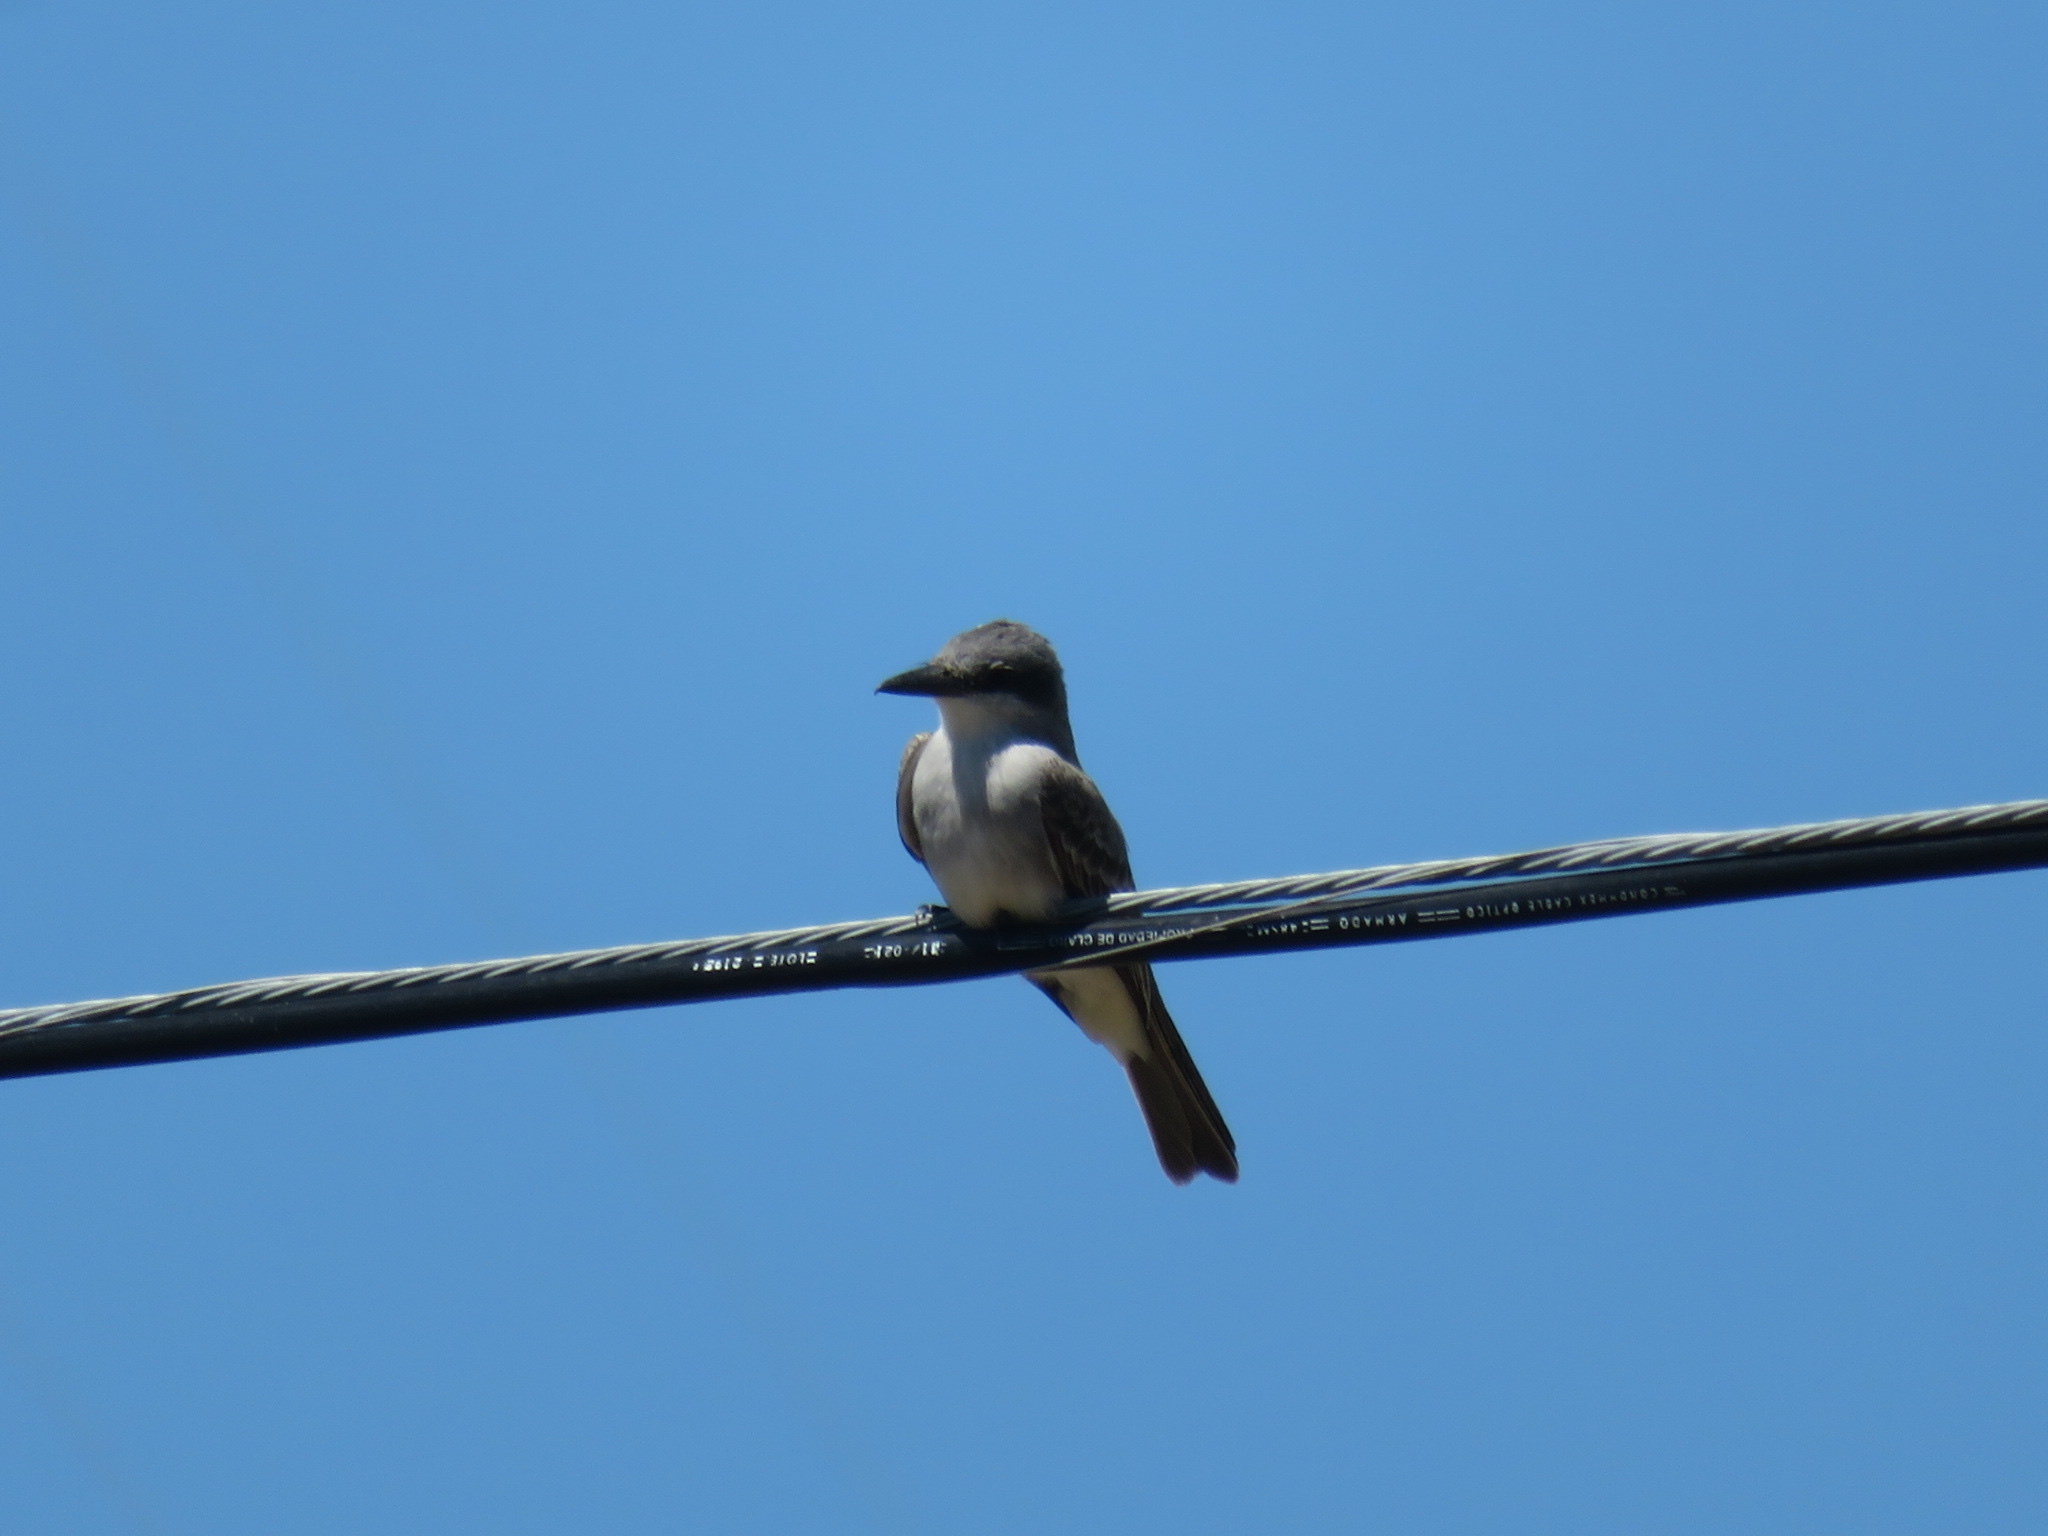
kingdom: Animalia
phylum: Chordata
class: Aves
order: Passeriformes
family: Tyrannidae
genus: Tyrannus
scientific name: Tyrannus dominicensis
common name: Gray kingbird
